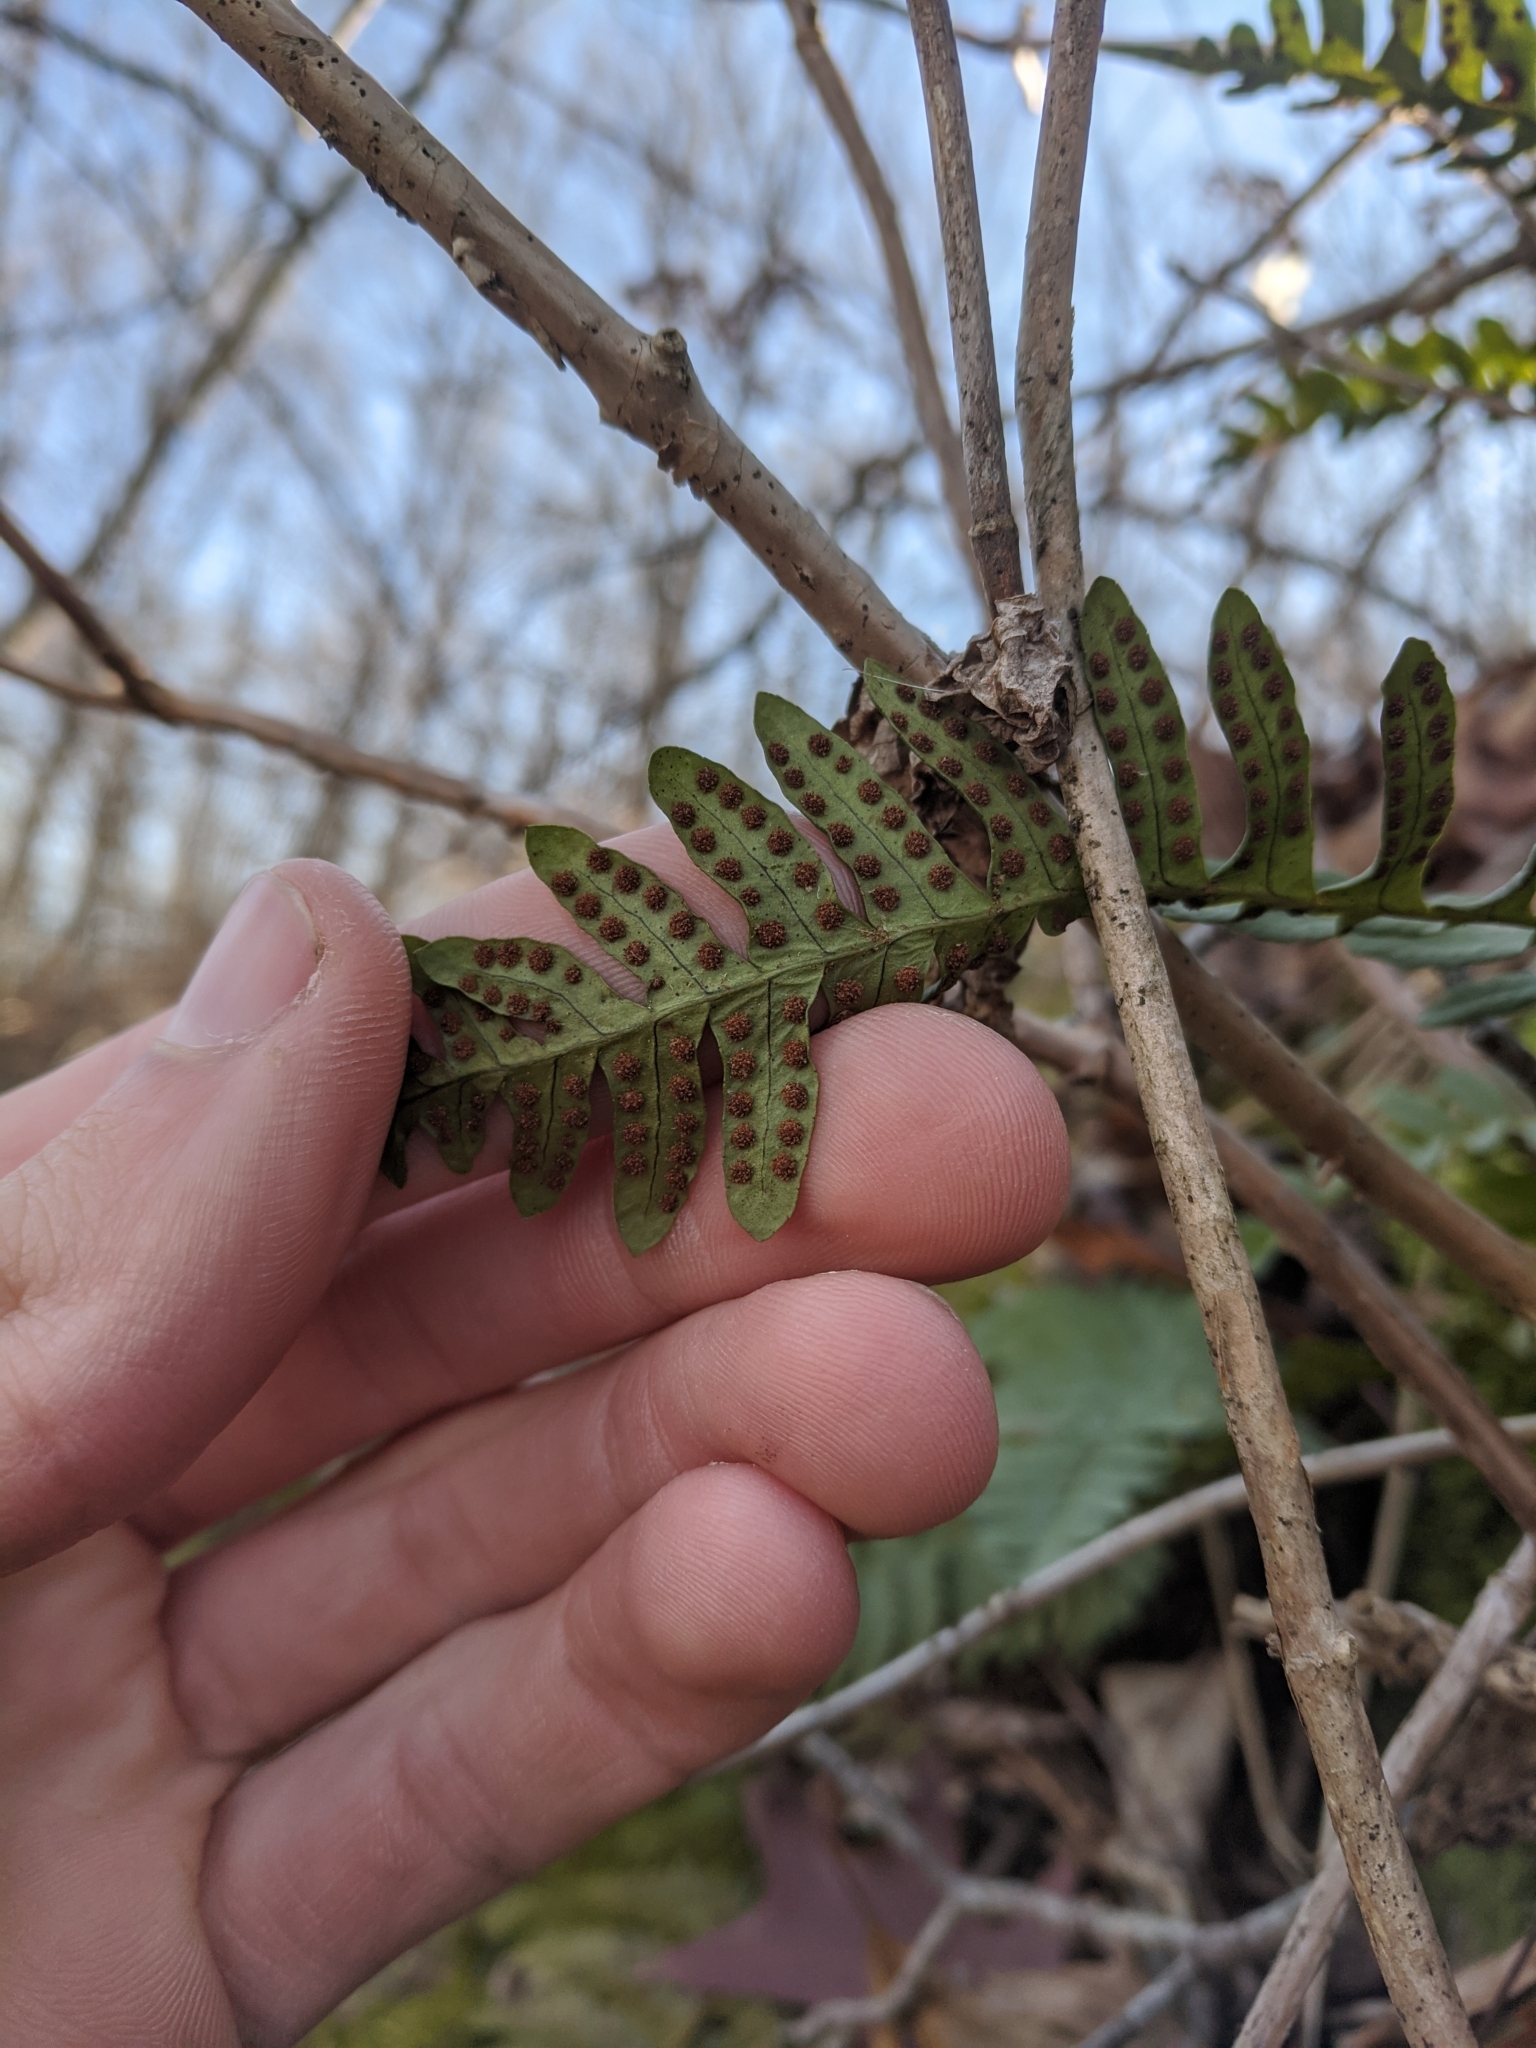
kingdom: Plantae
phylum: Tracheophyta
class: Polypodiopsida
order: Polypodiales
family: Polypodiaceae
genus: Polypodium
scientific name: Polypodium virginianum
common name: American wall fern
